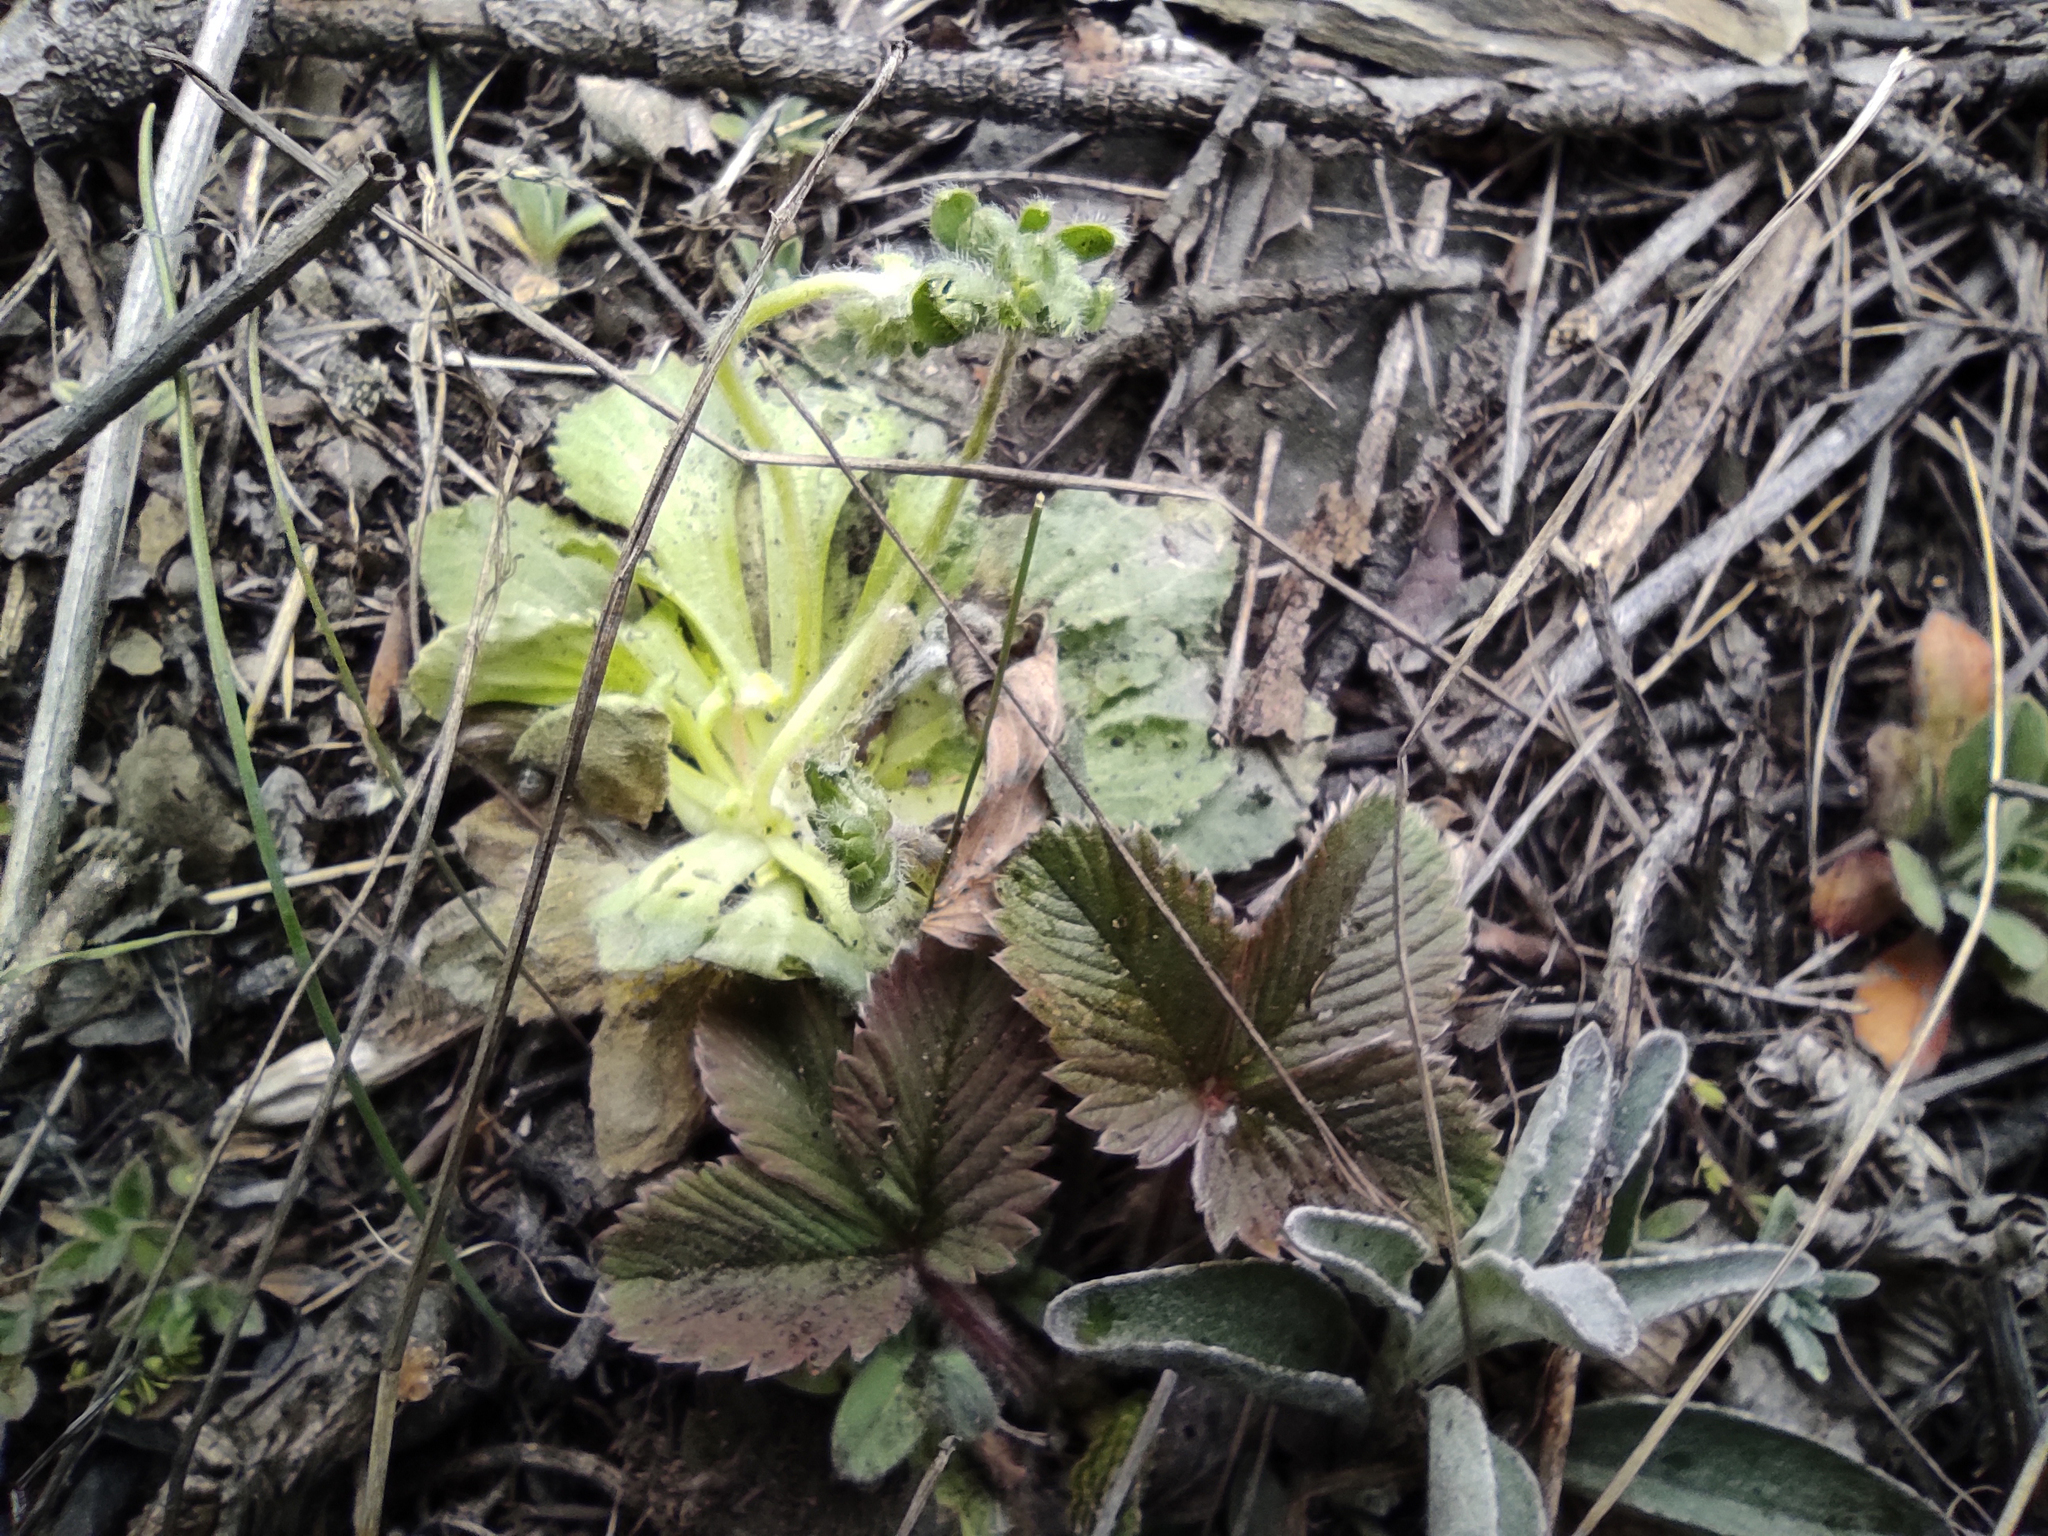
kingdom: Plantae
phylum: Tracheophyta
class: Magnoliopsida
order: Ericales
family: Primulaceae
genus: Androsace
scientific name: Androsace maxima
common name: Annual androsace
